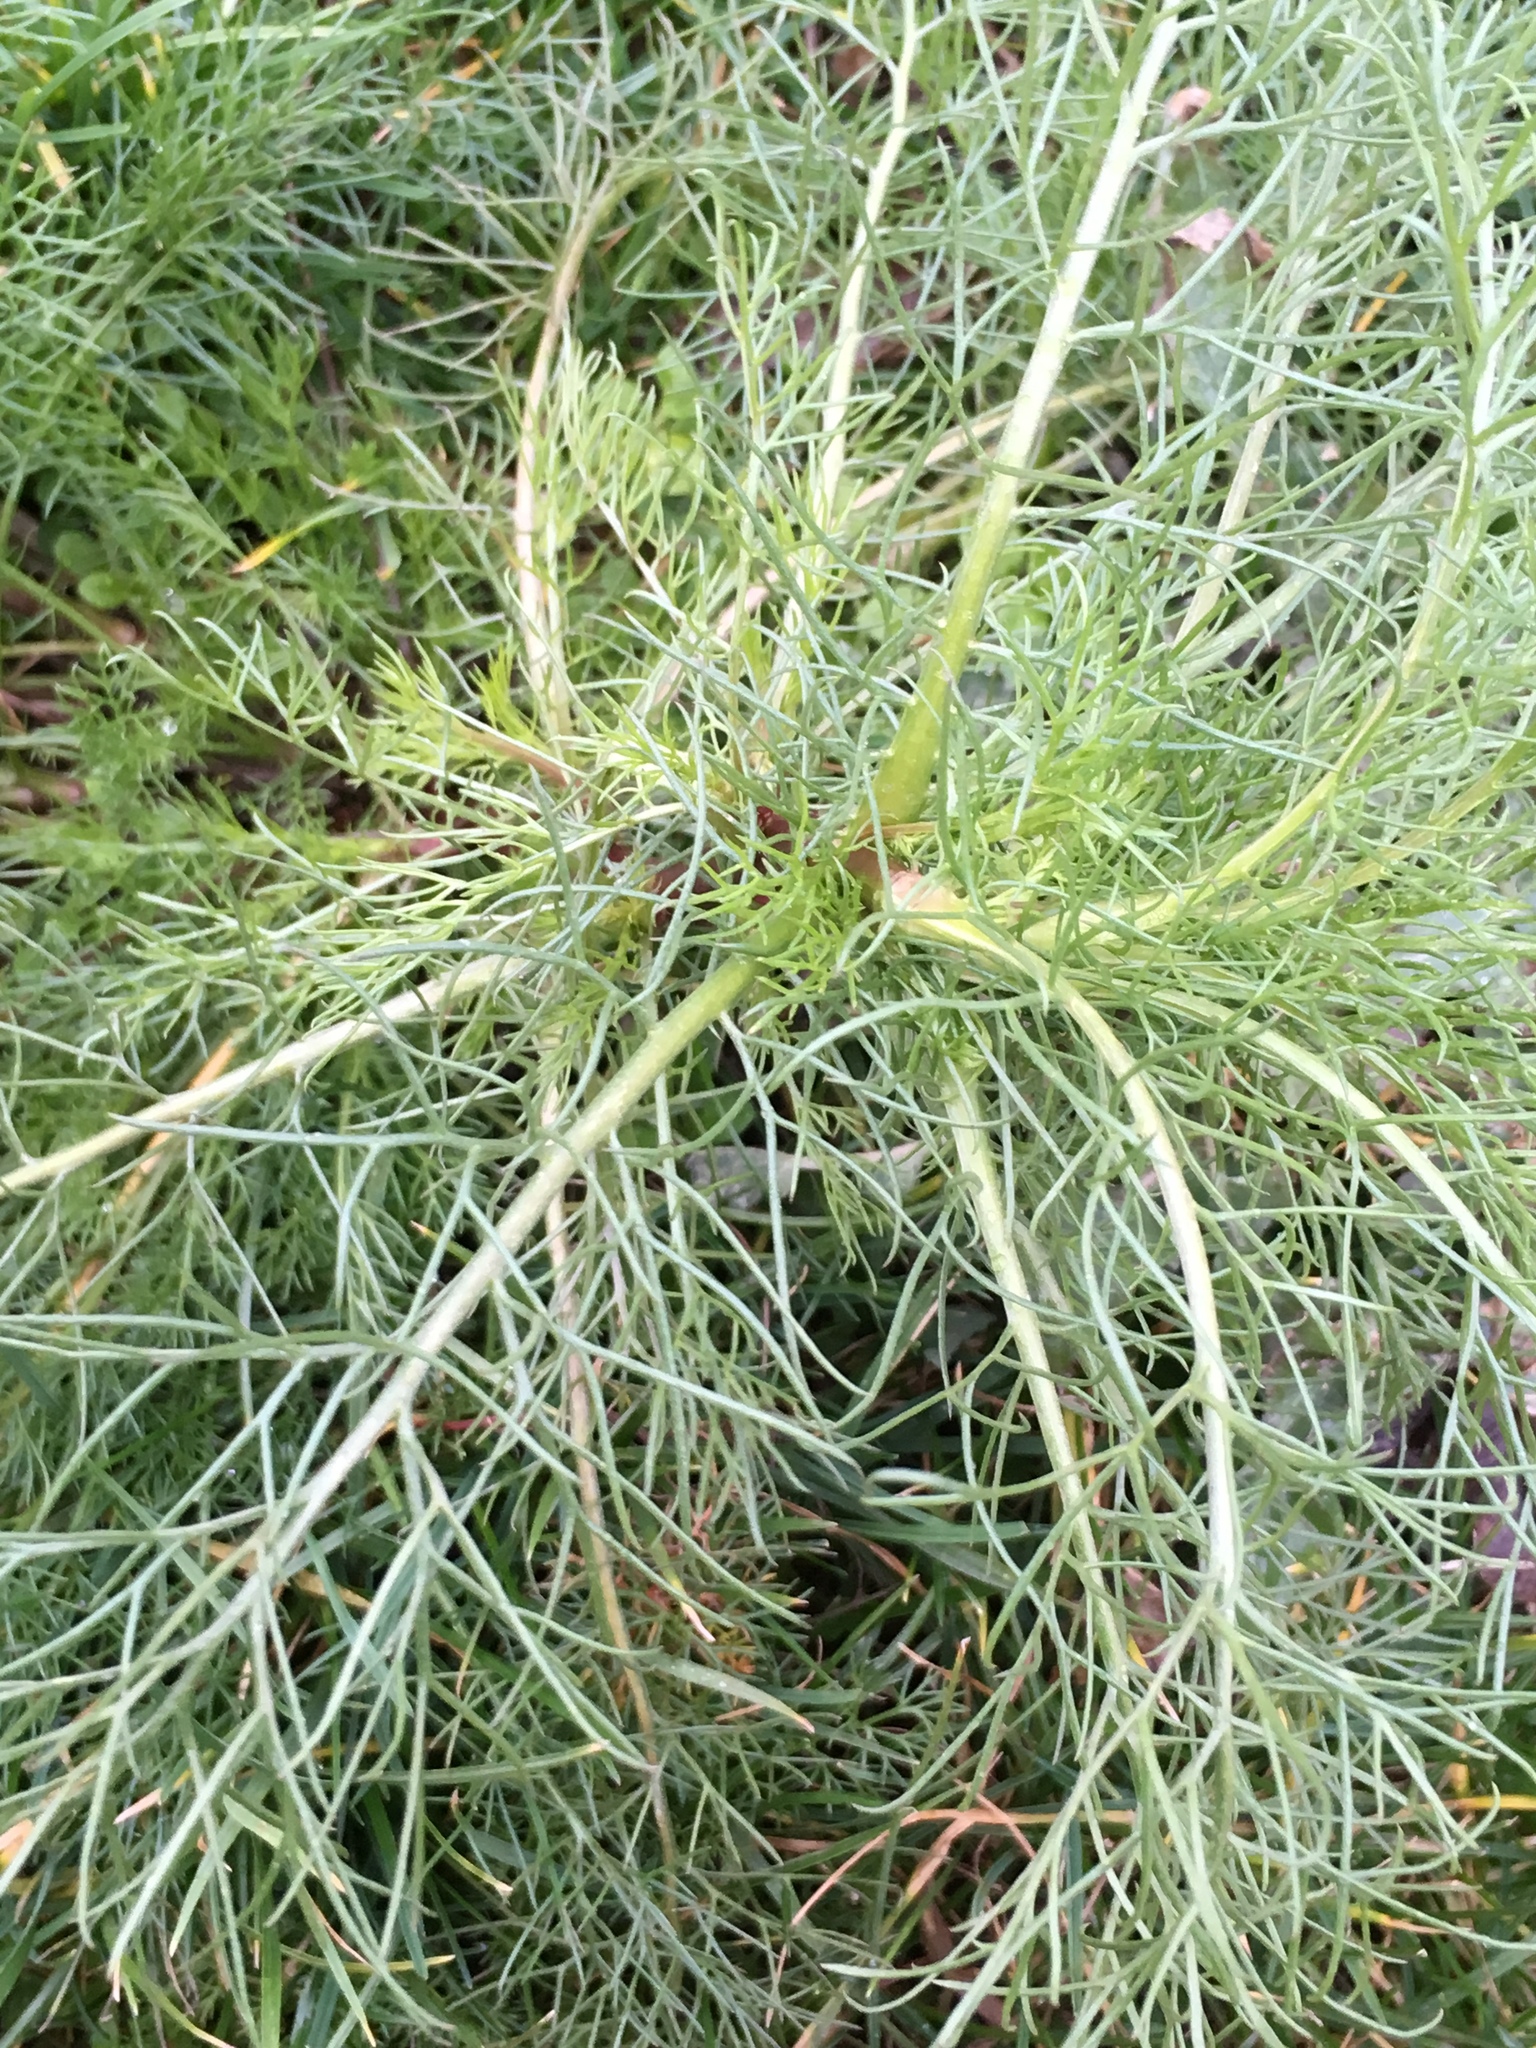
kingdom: Plantae
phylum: Tracheophyta
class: Magnoliopsida
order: Asterales
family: Asteraceae
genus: Tripleurospermum
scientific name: Tripleurospermum inodorum
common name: Scentless mayweed
